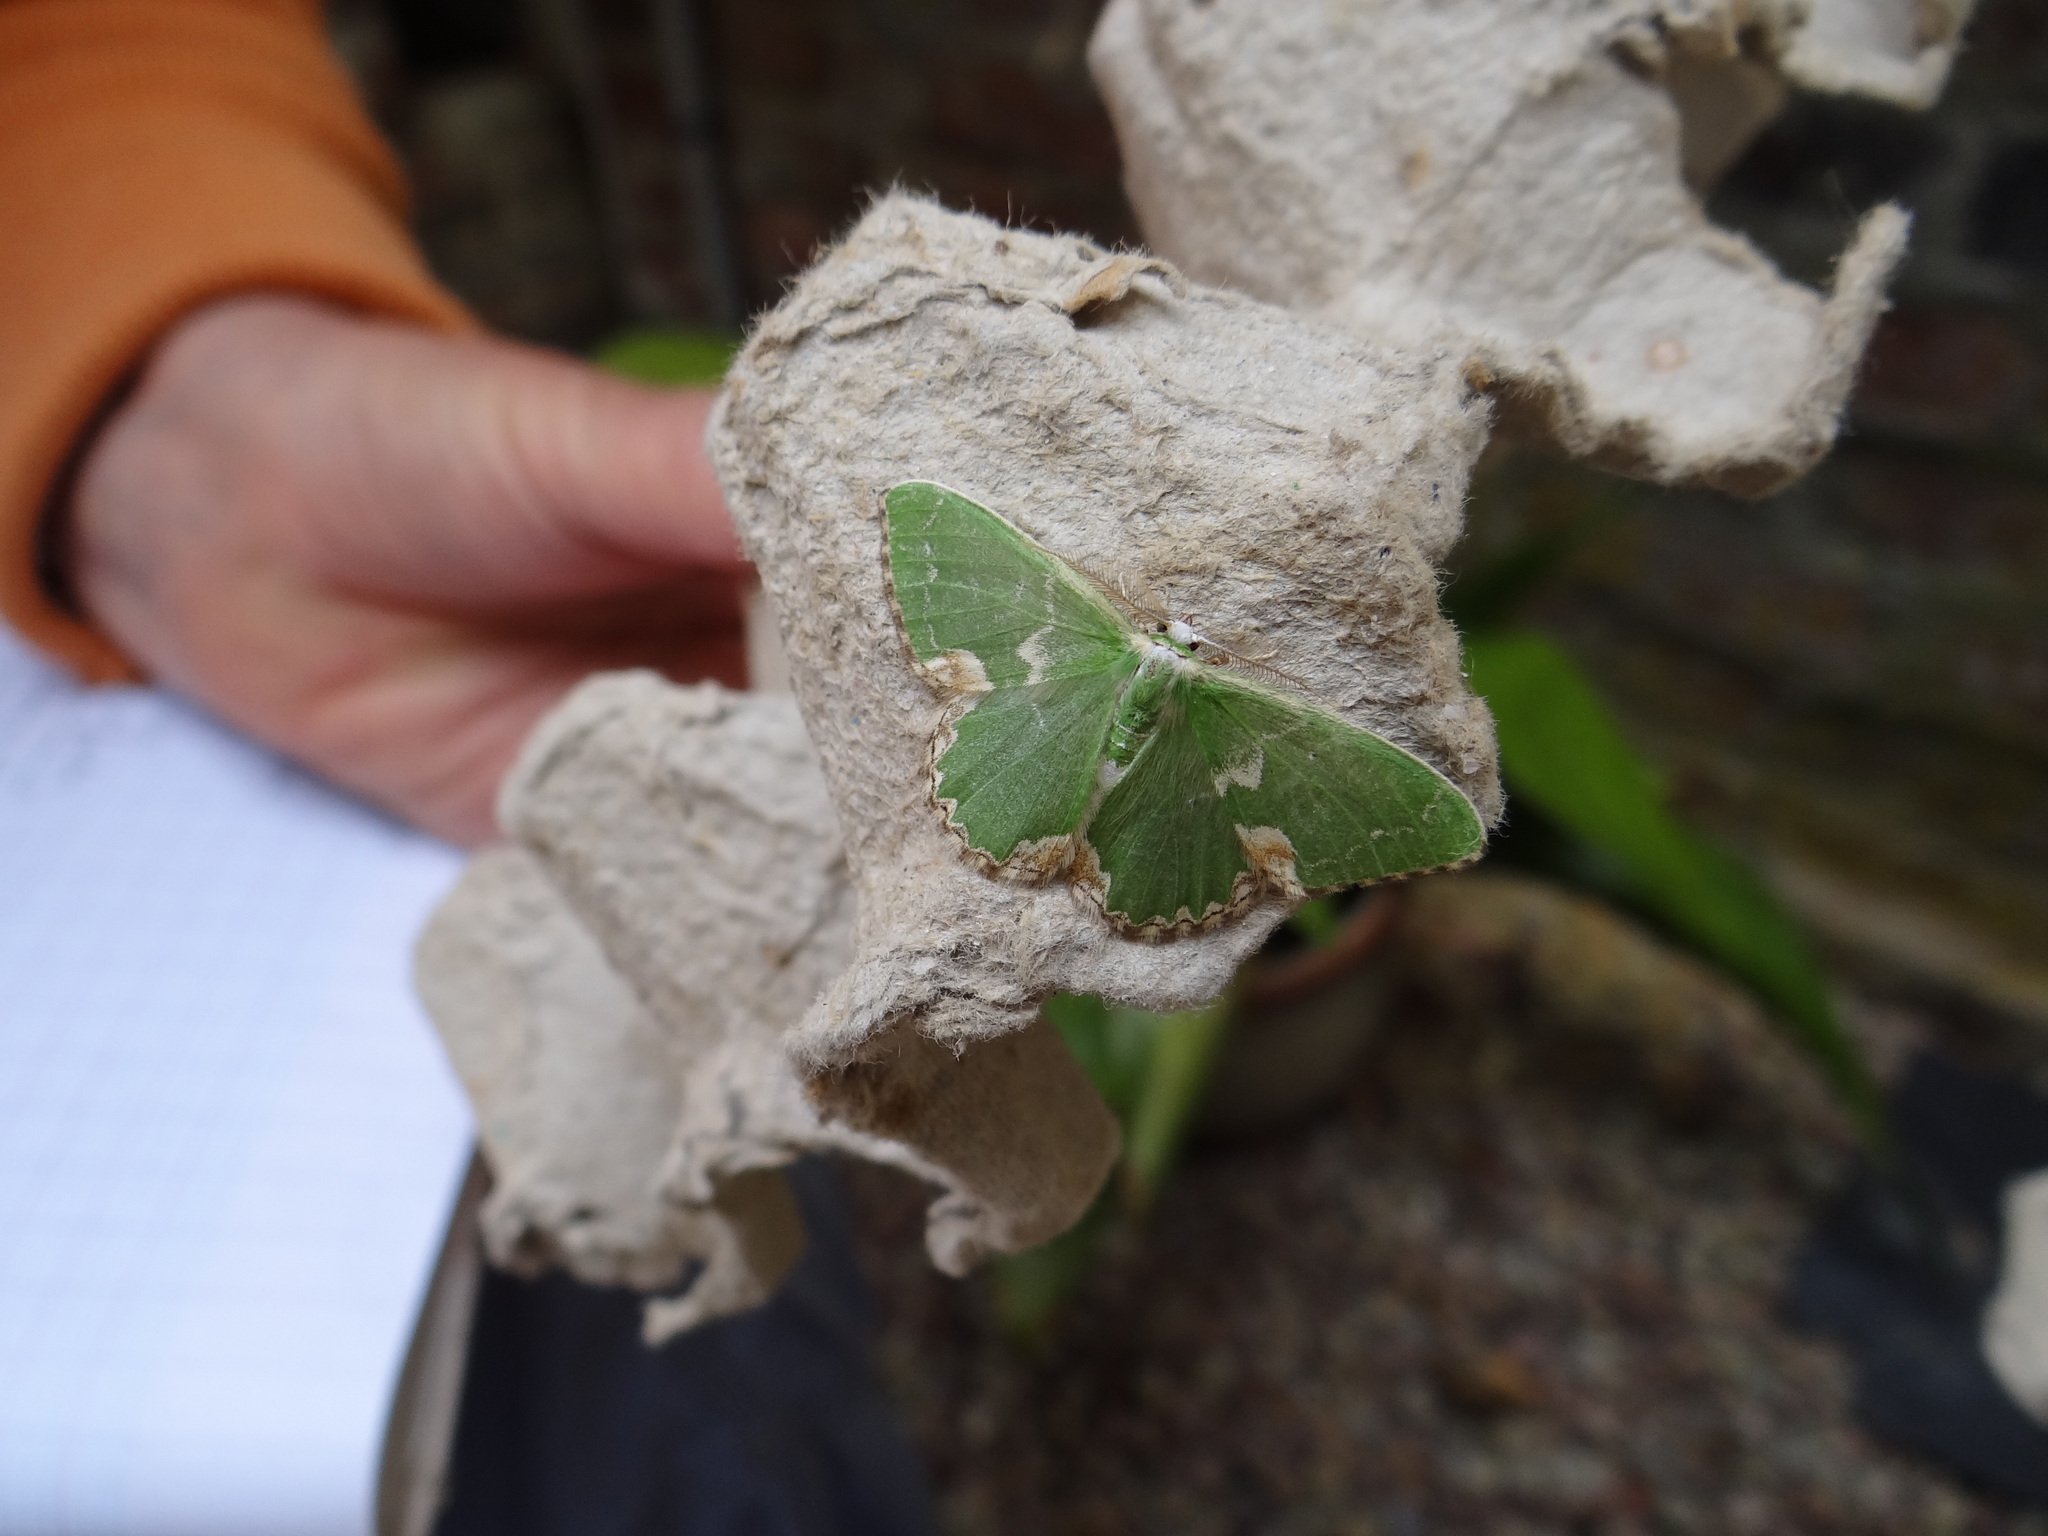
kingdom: Animalia
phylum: Arthropoda
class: Insecta
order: Lepidoptera
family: Geometridae
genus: Comibaena
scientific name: Comibaena bajularia
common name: Blotched emerald
